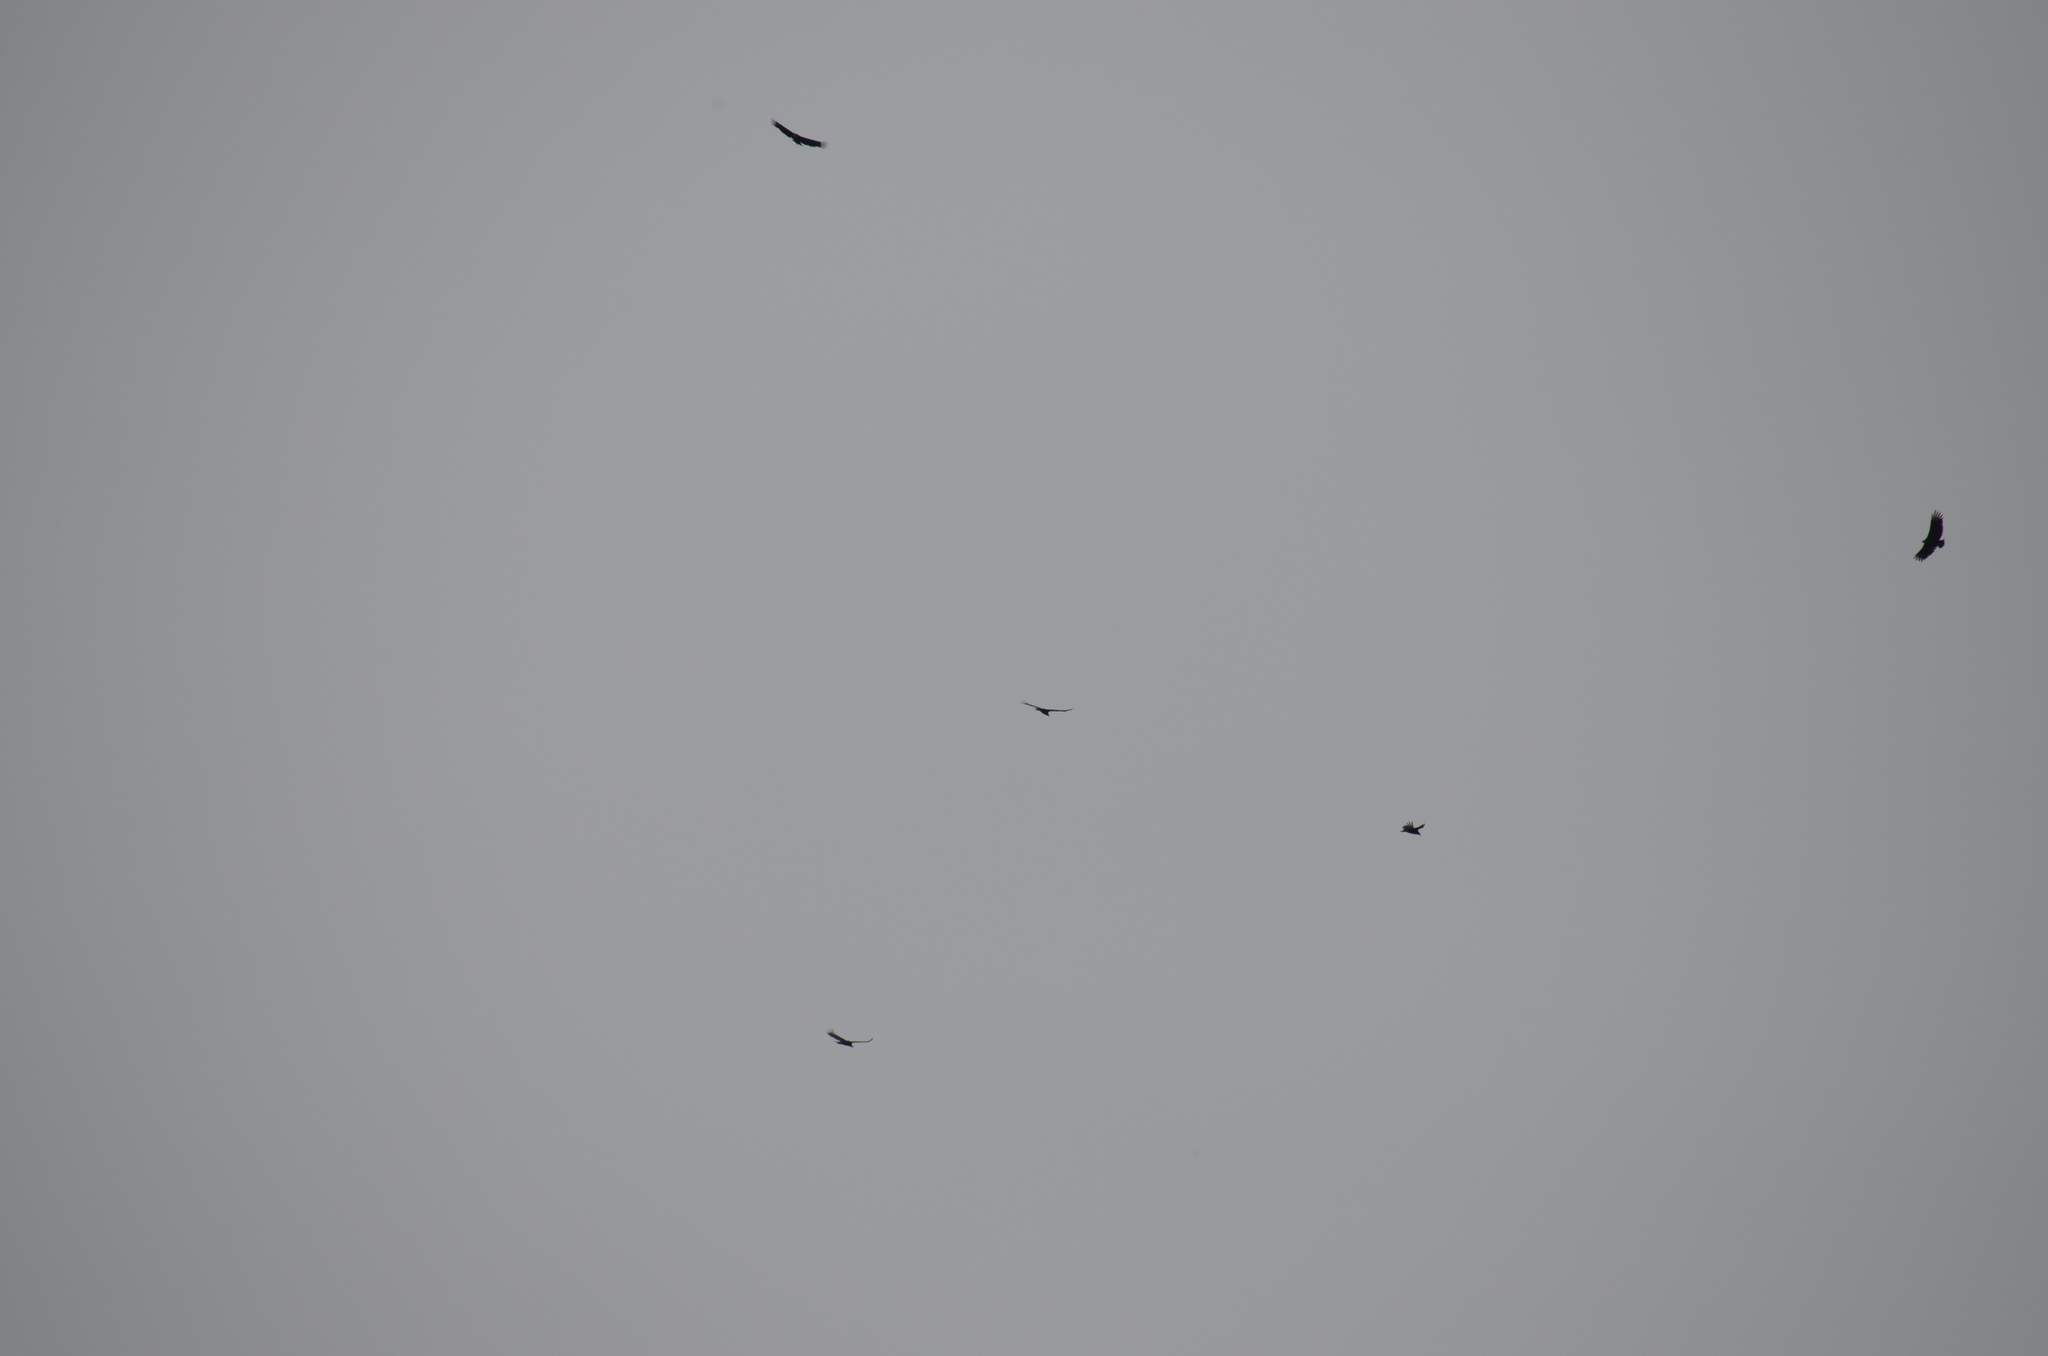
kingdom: Animalia
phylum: Chordata
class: Aves
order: Accipitriformes
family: Cathartidae
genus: Coragyps
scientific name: Coragyps atratus
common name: Black vulture
